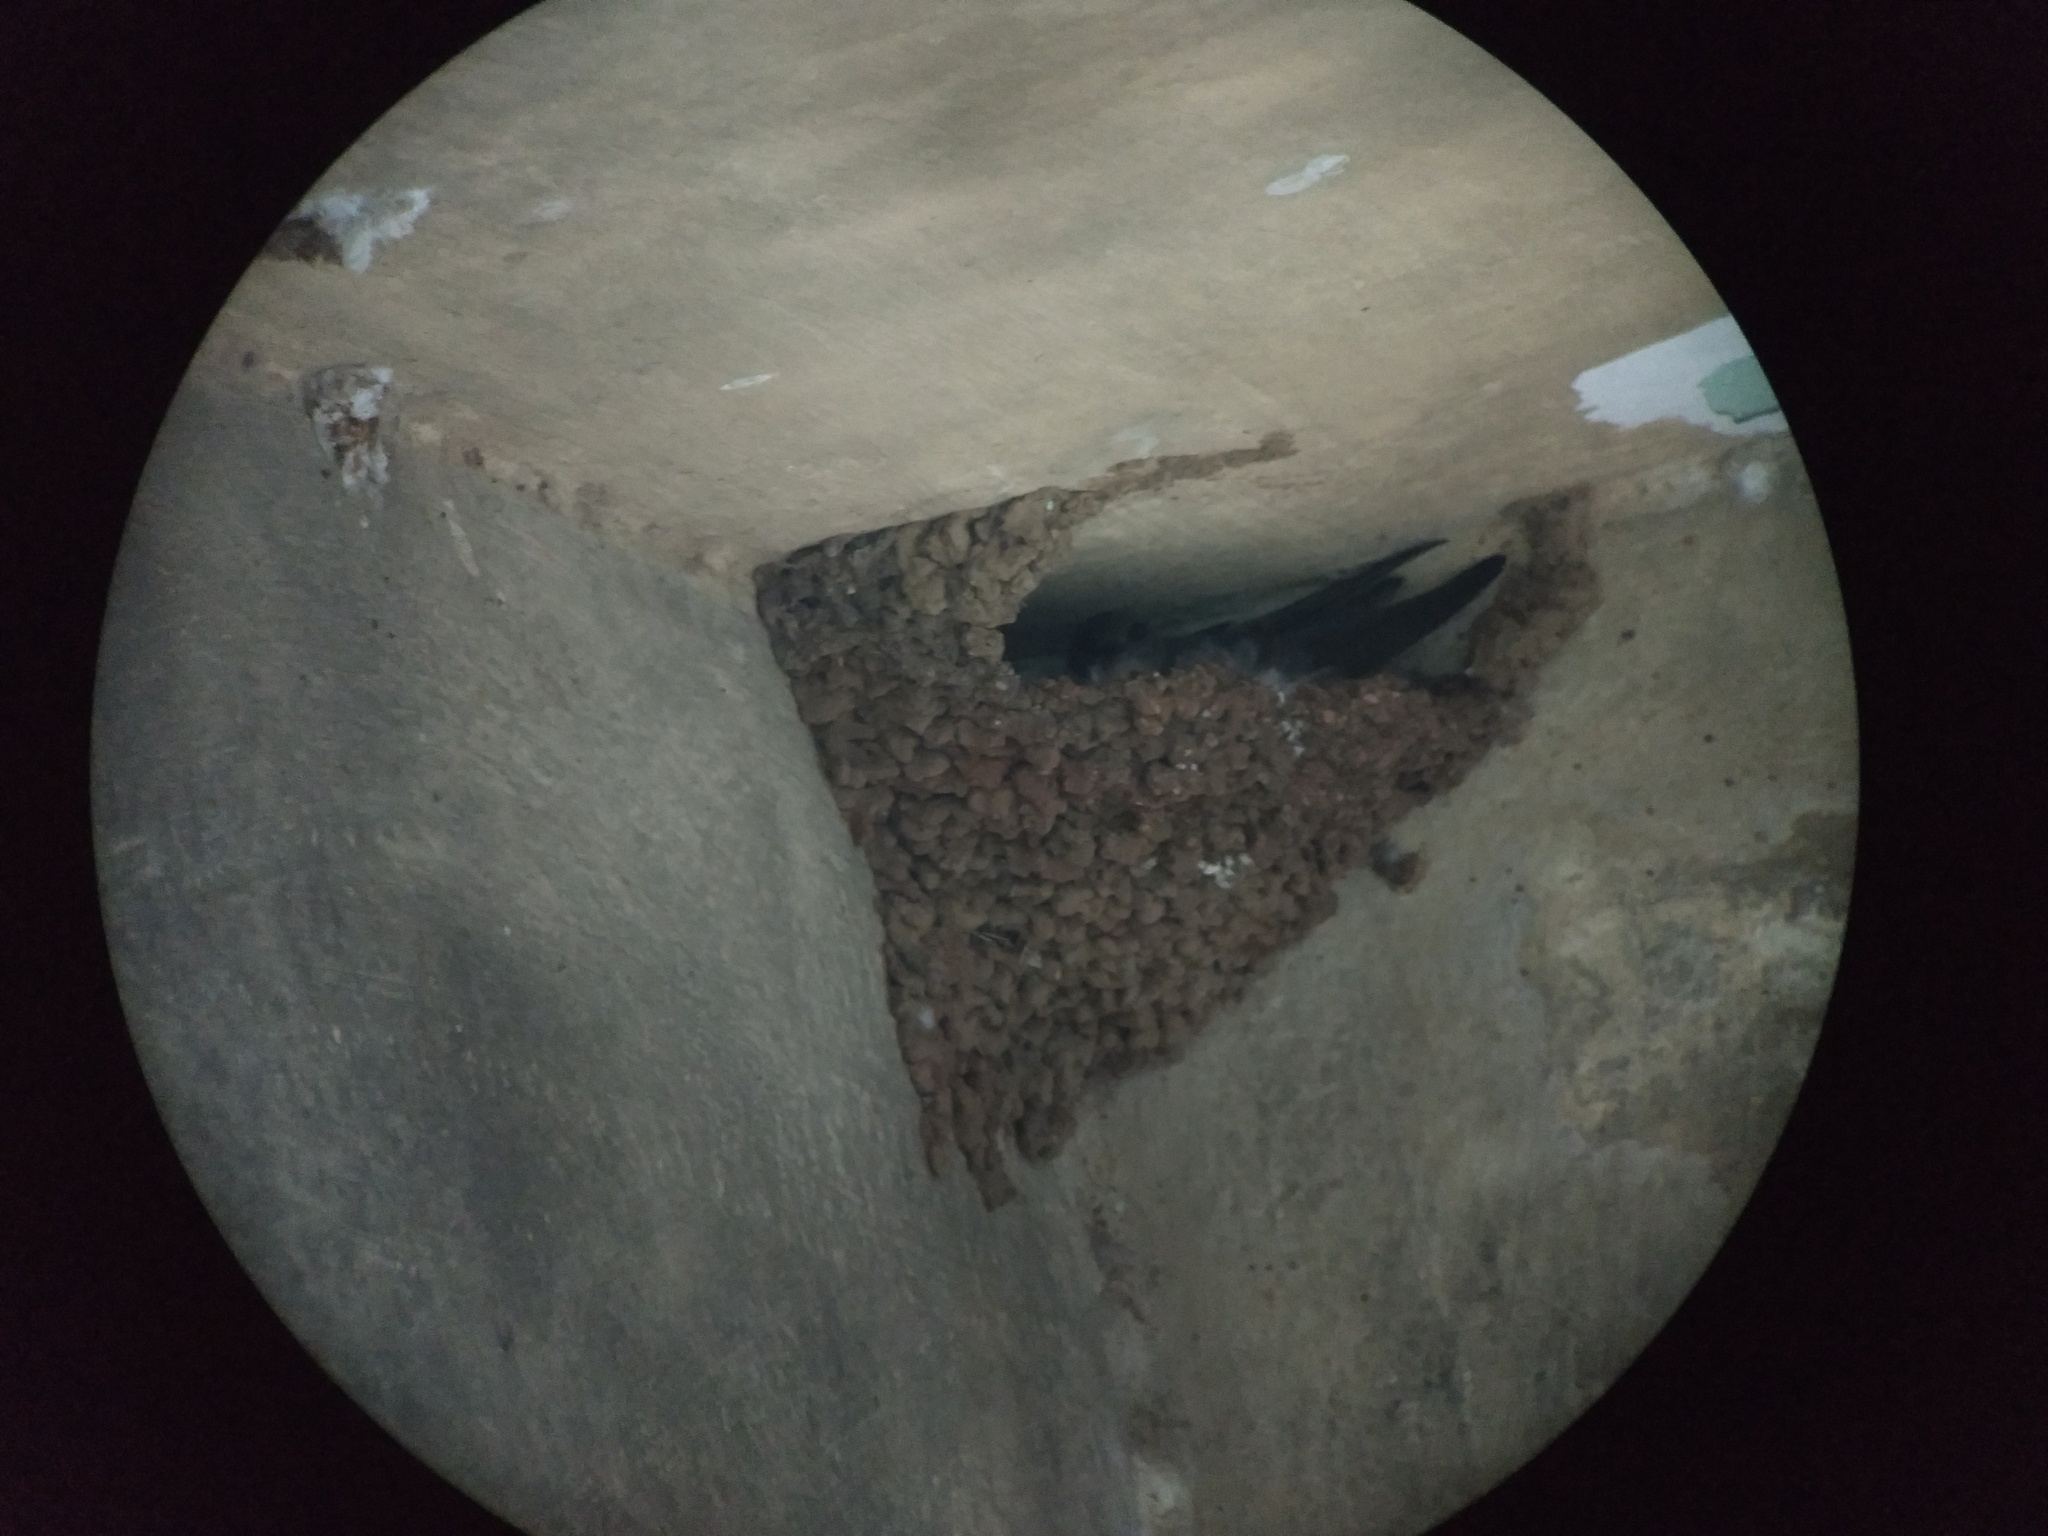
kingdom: Animalia
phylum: Chordata
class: Aves
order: Passeriformes
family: Hirundinidae
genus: Ptyonoprogne
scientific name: Ptyonoprogne concolor
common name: Dusky crag-martin
